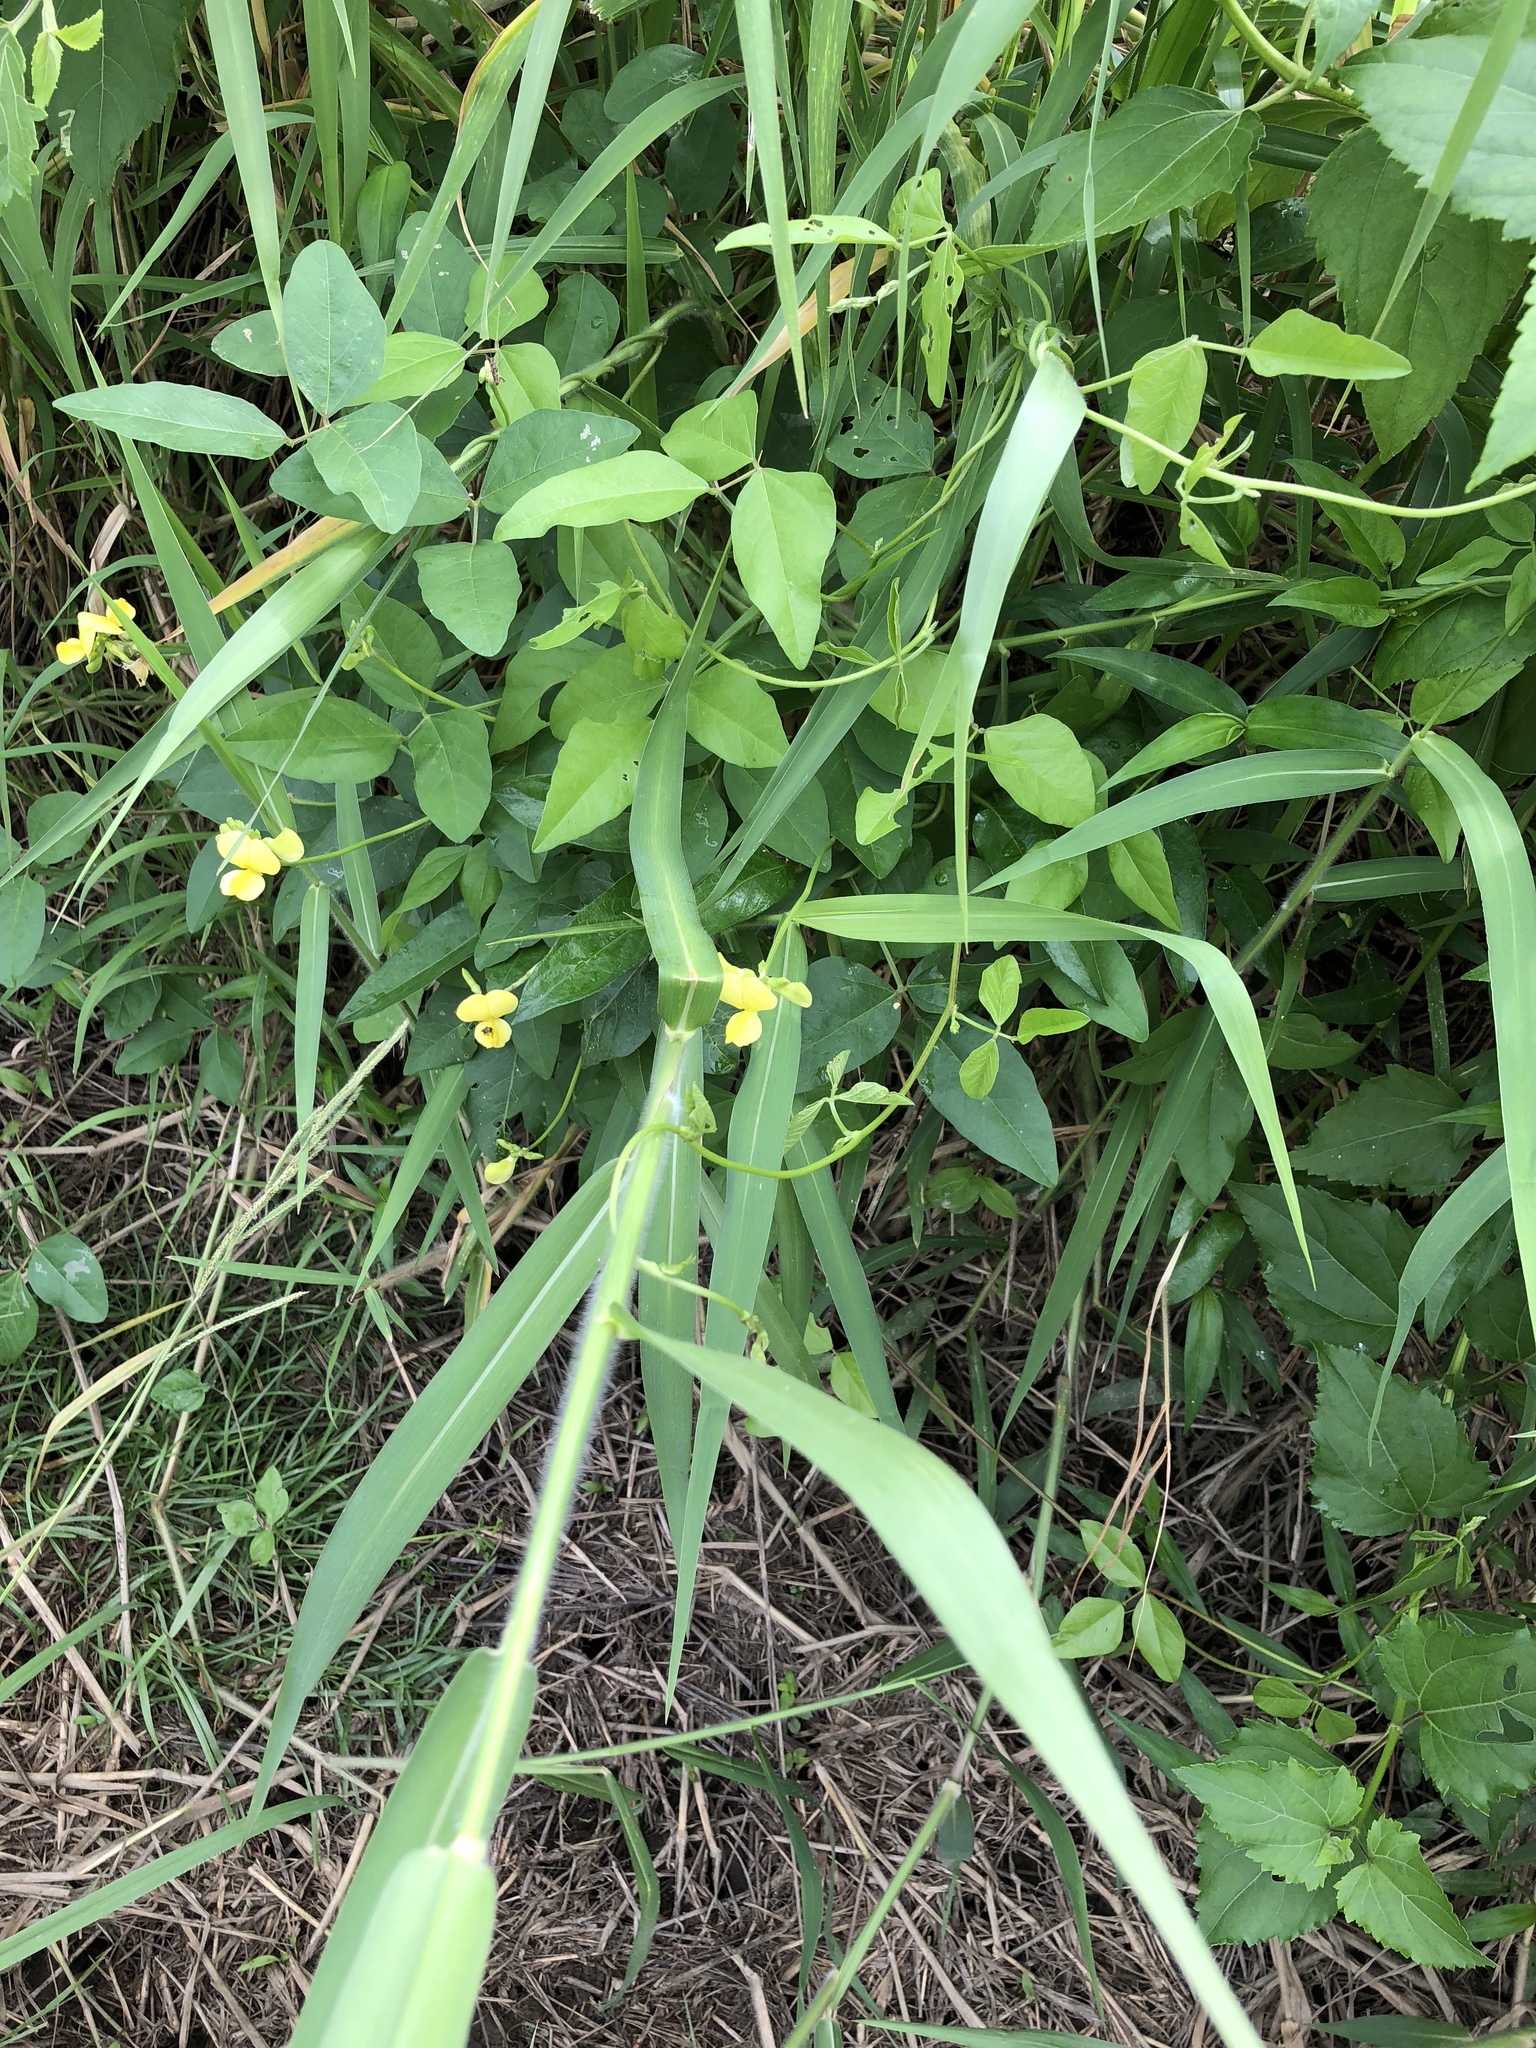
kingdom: Plantae
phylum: Tracheophyta
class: Magnoliopsida
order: Fabales
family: Fabaceae
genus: Vigna
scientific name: Vigna luteola
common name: Hairypod cowpea
